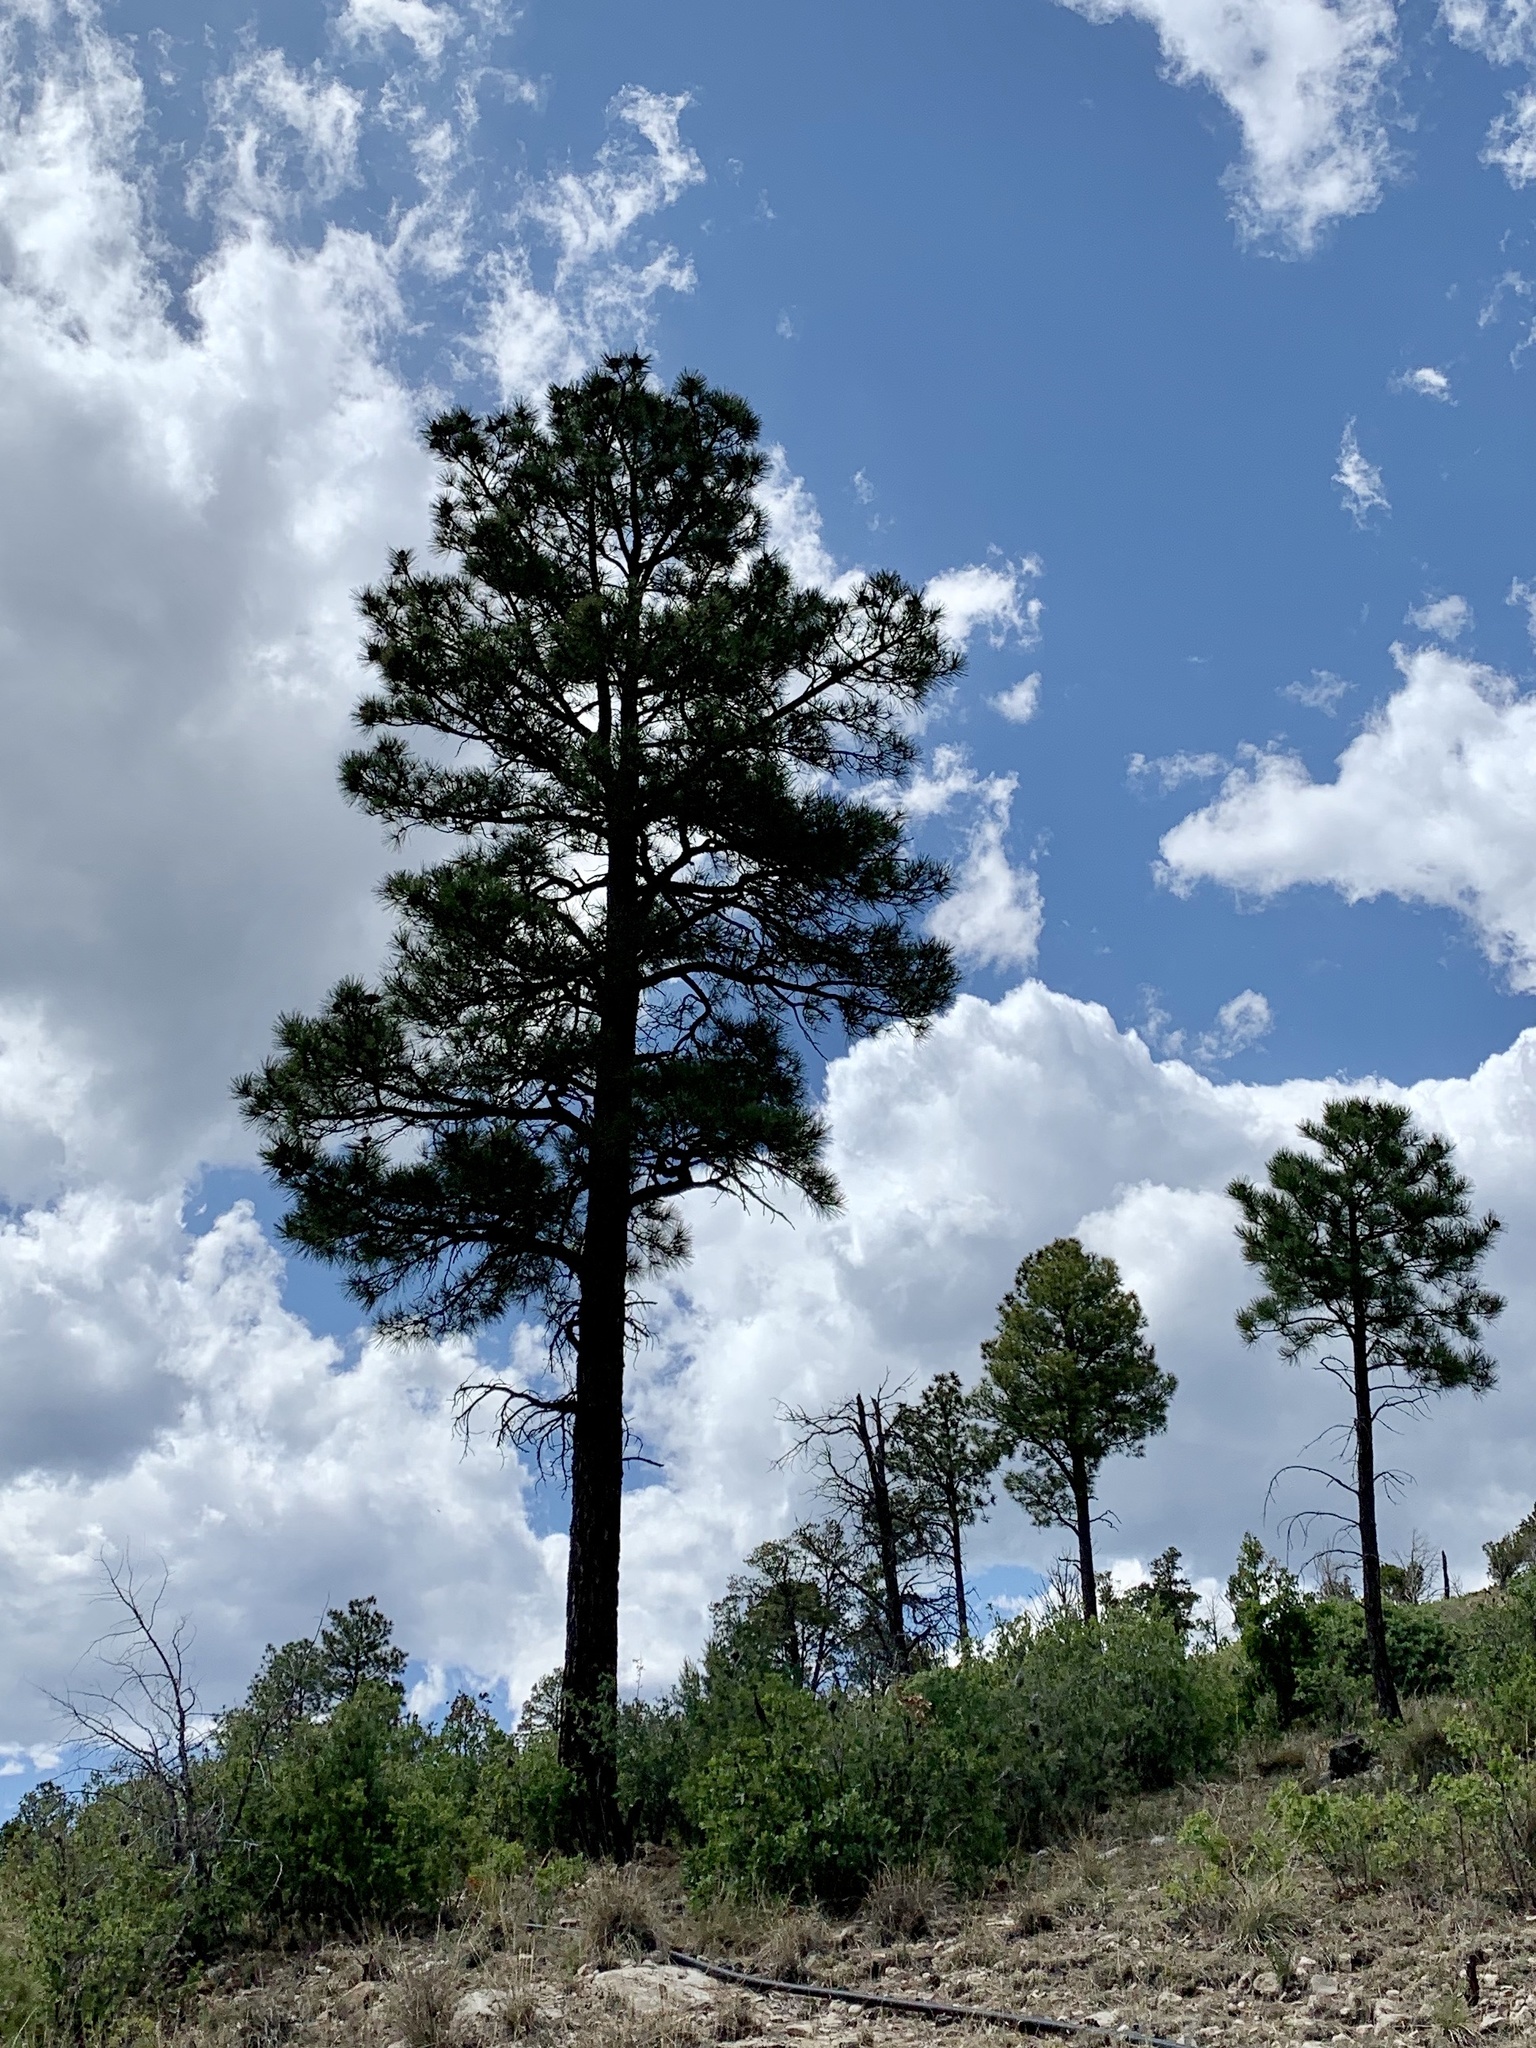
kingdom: Plantae
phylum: Tracheophyta
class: Pinopsida
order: Pinales
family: Pinaceae
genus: Pinus
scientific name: Pinus ponderosa
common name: Western yellow-pine
